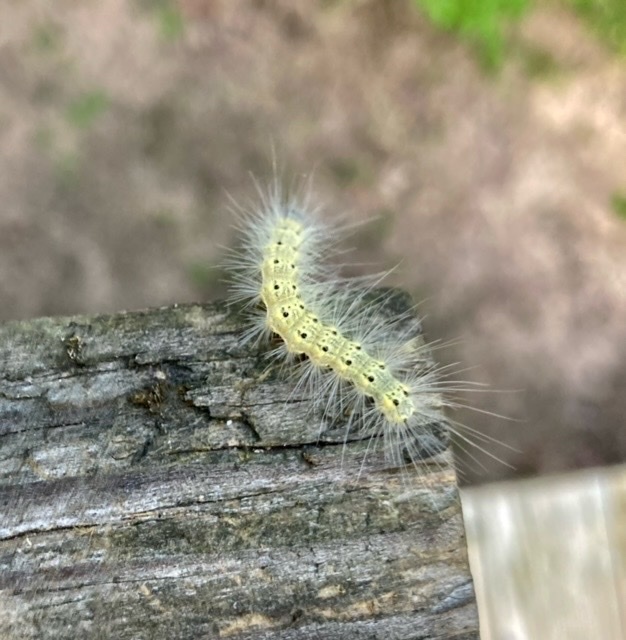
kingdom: Animalia
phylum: Arthropoda
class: Insecta
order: Lepidoptera
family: Erebidae
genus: Hyphantria
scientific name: Hyphantria cunea
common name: American white moth
